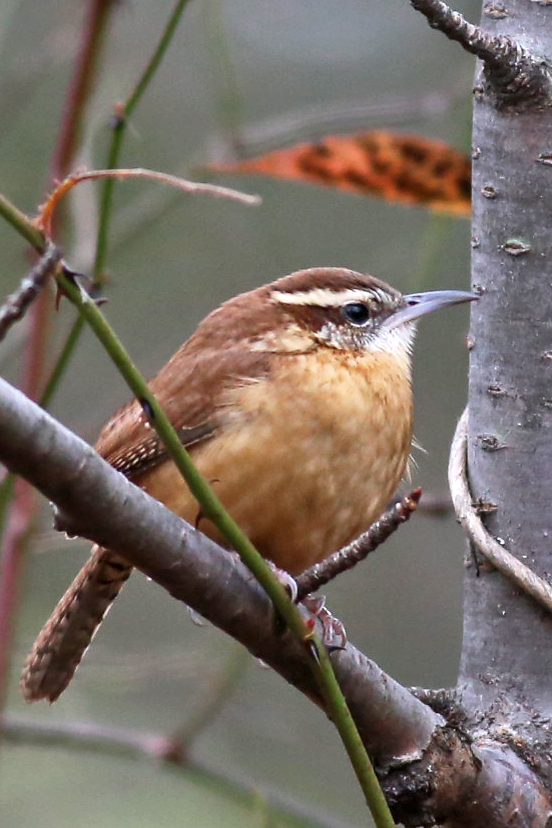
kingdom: Animalia
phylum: Chordata
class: Aves
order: Passeriformes
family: Troglodytidae
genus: Thryothorus
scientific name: Thryothorus ludovicianus
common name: Carolina wren
